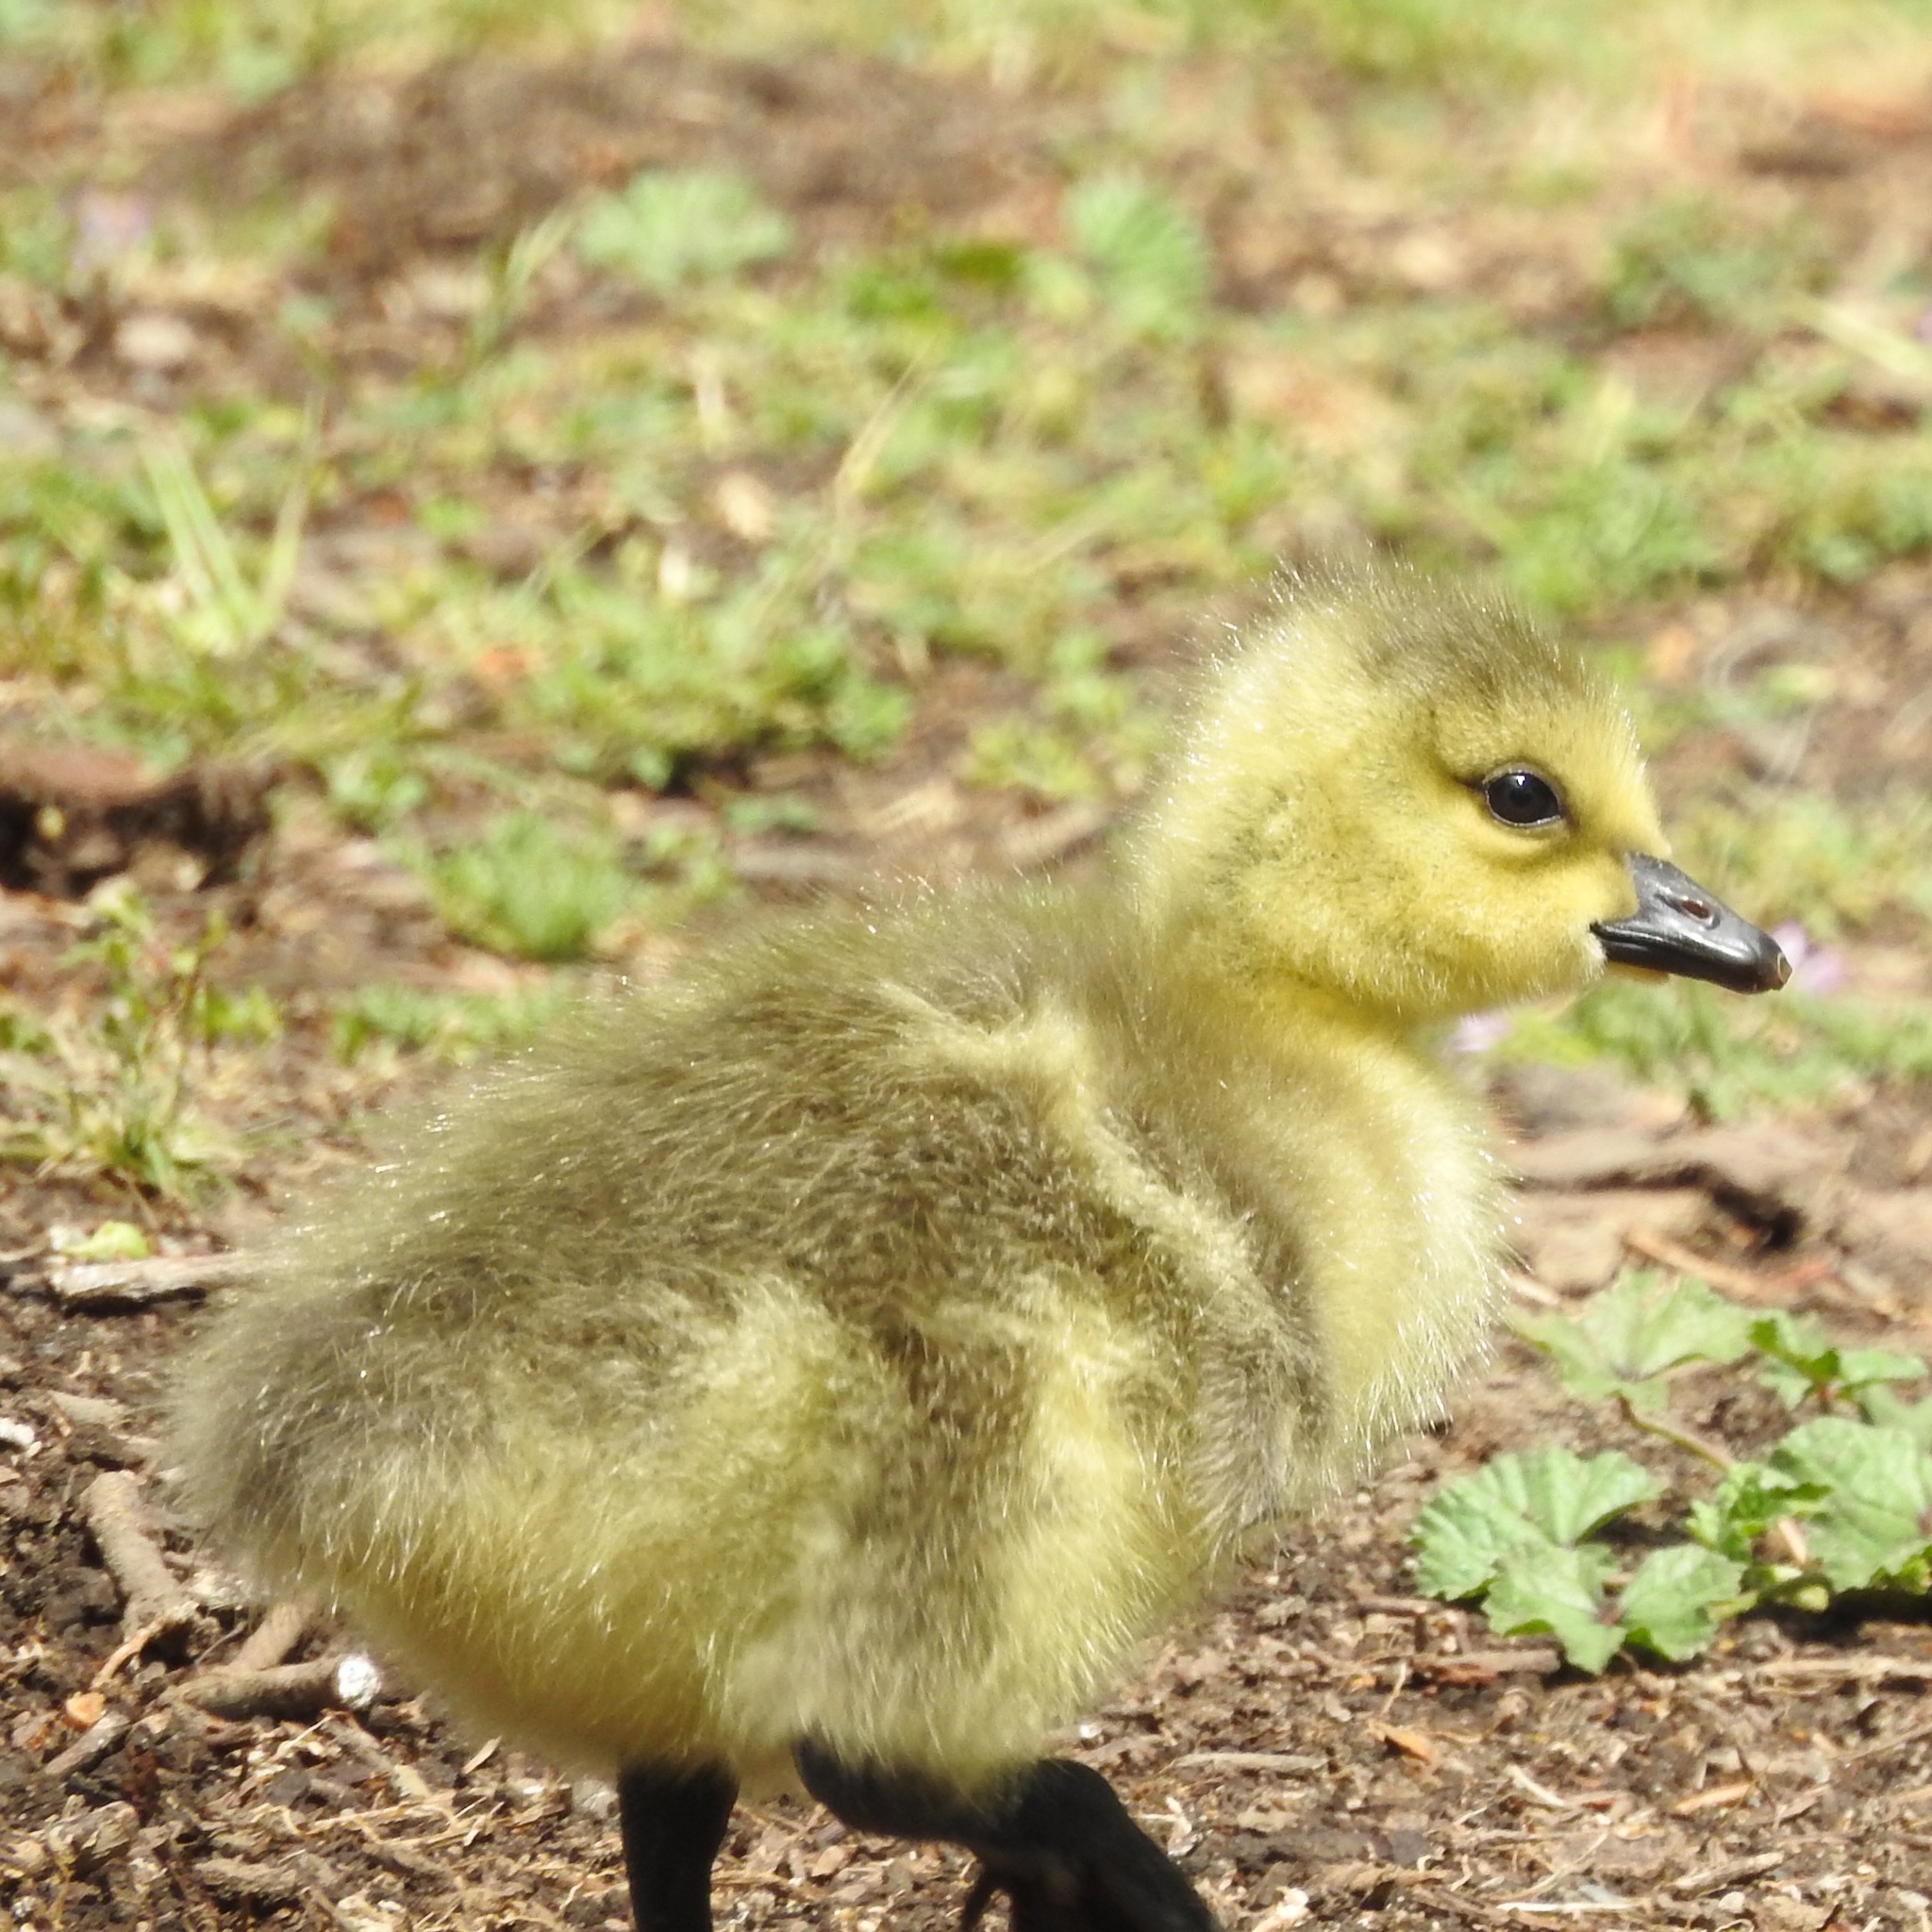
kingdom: Animalia
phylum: Chordata
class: Aves
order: Anseriformes
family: Anatidae
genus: Branta
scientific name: Branta canadensis
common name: Canada goose
